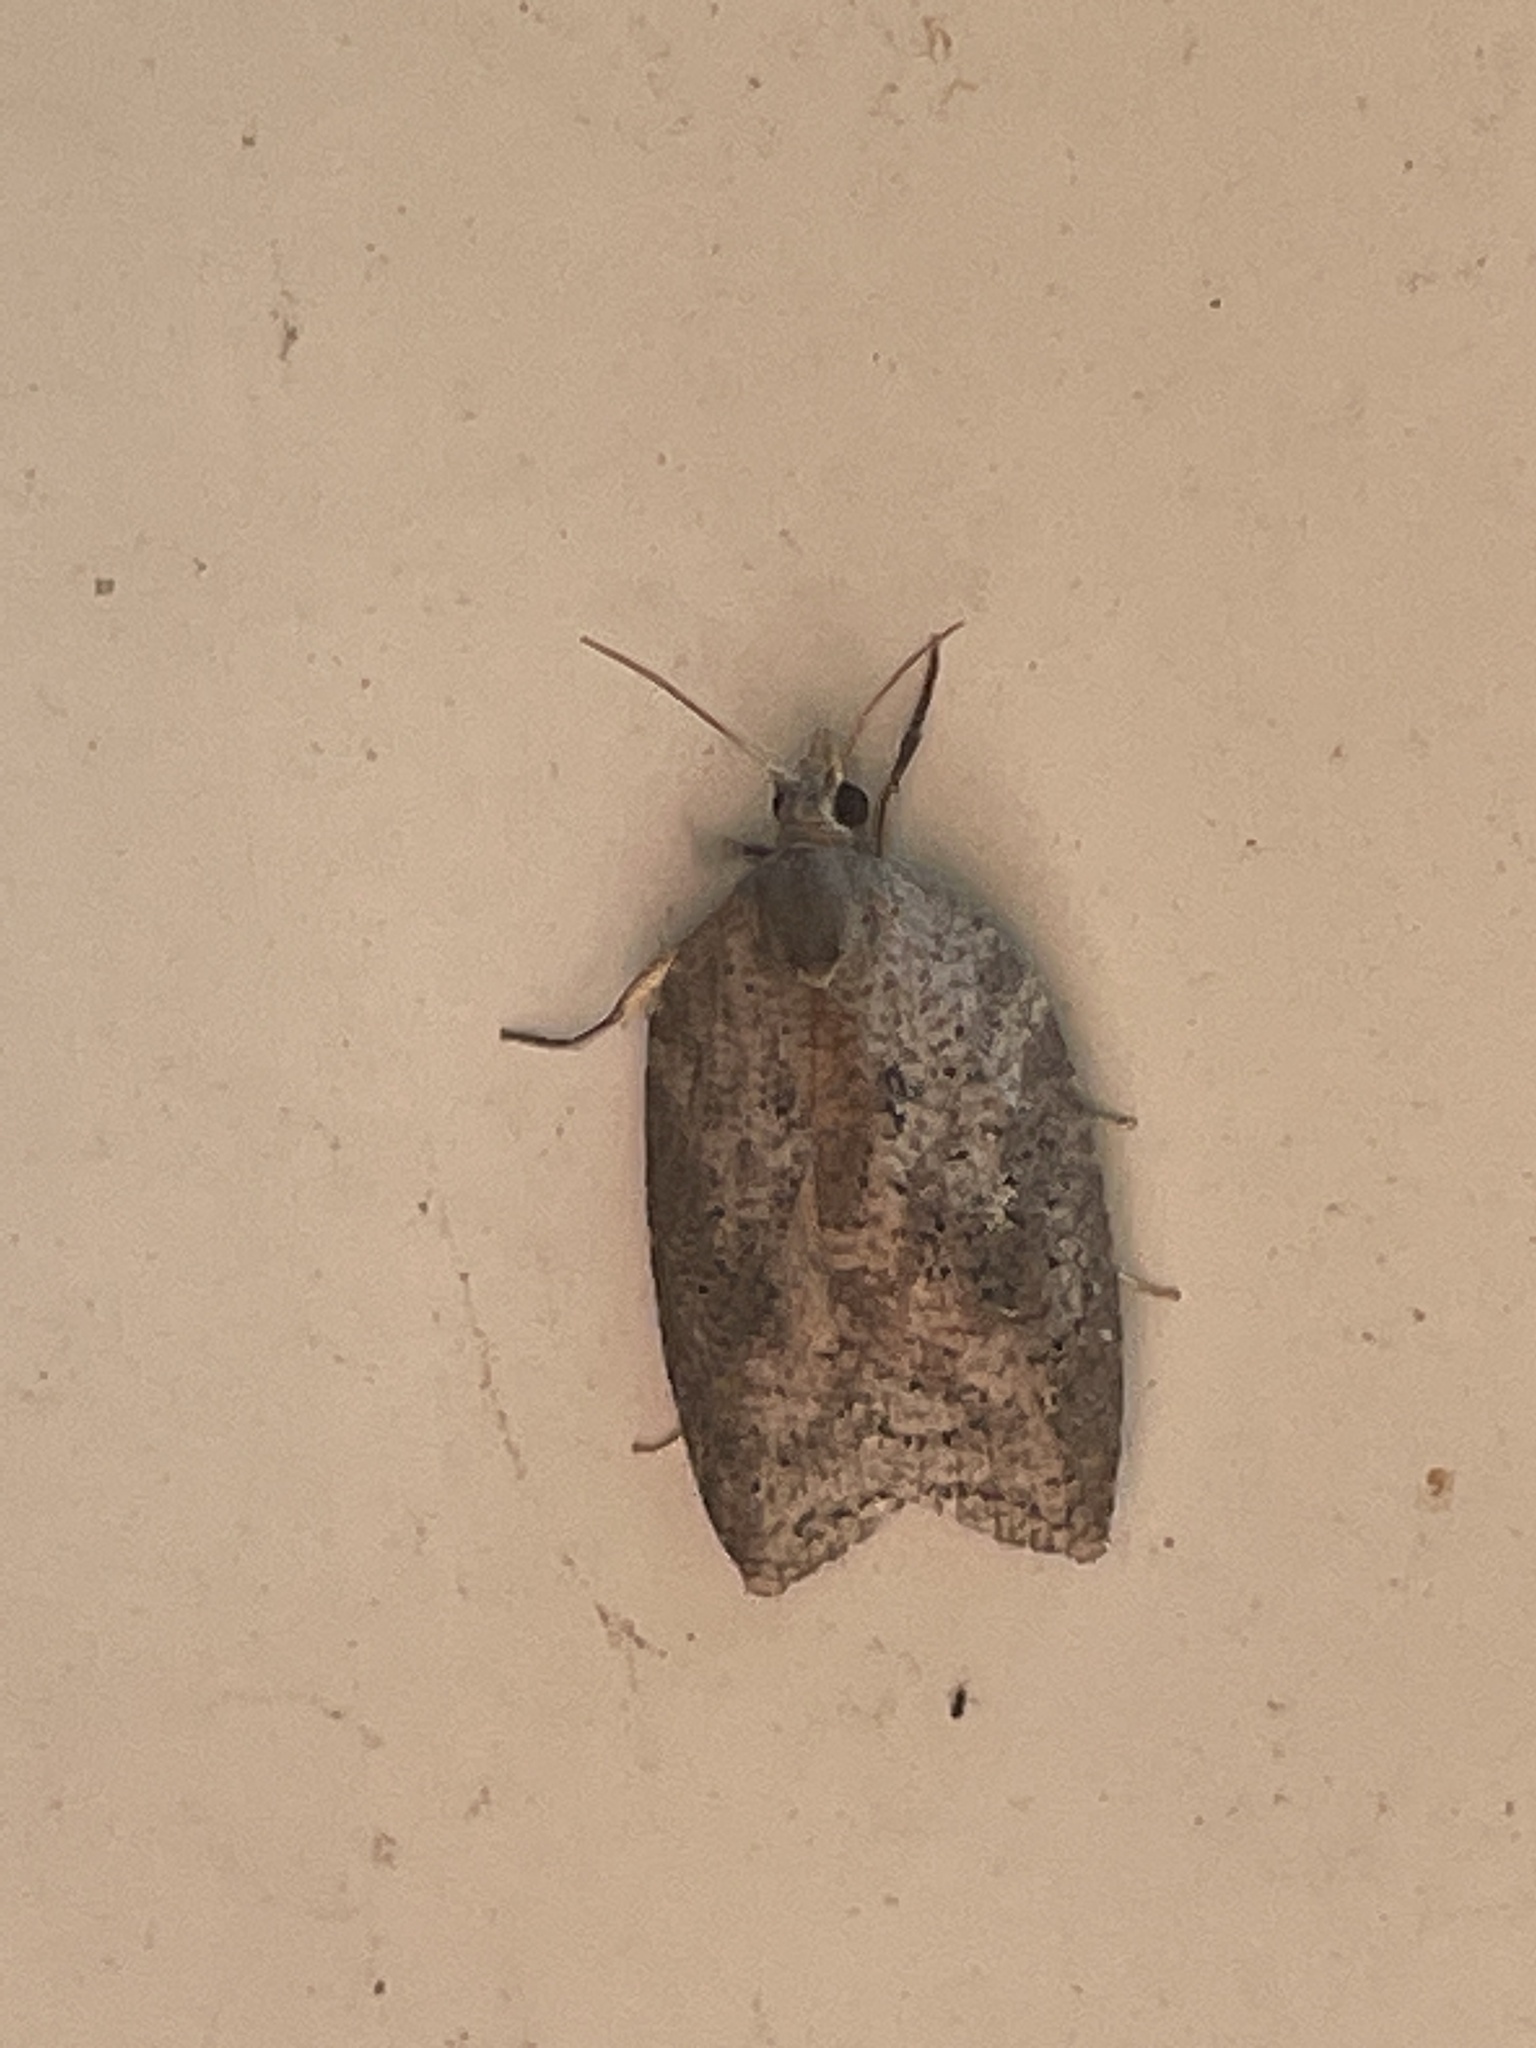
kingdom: Animalia
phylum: Arthropoda
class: Insecta
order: Lepidoptera
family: Tortricidae
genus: Amorbia
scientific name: Amorbia humerosana
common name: White-lined leafroller moth
